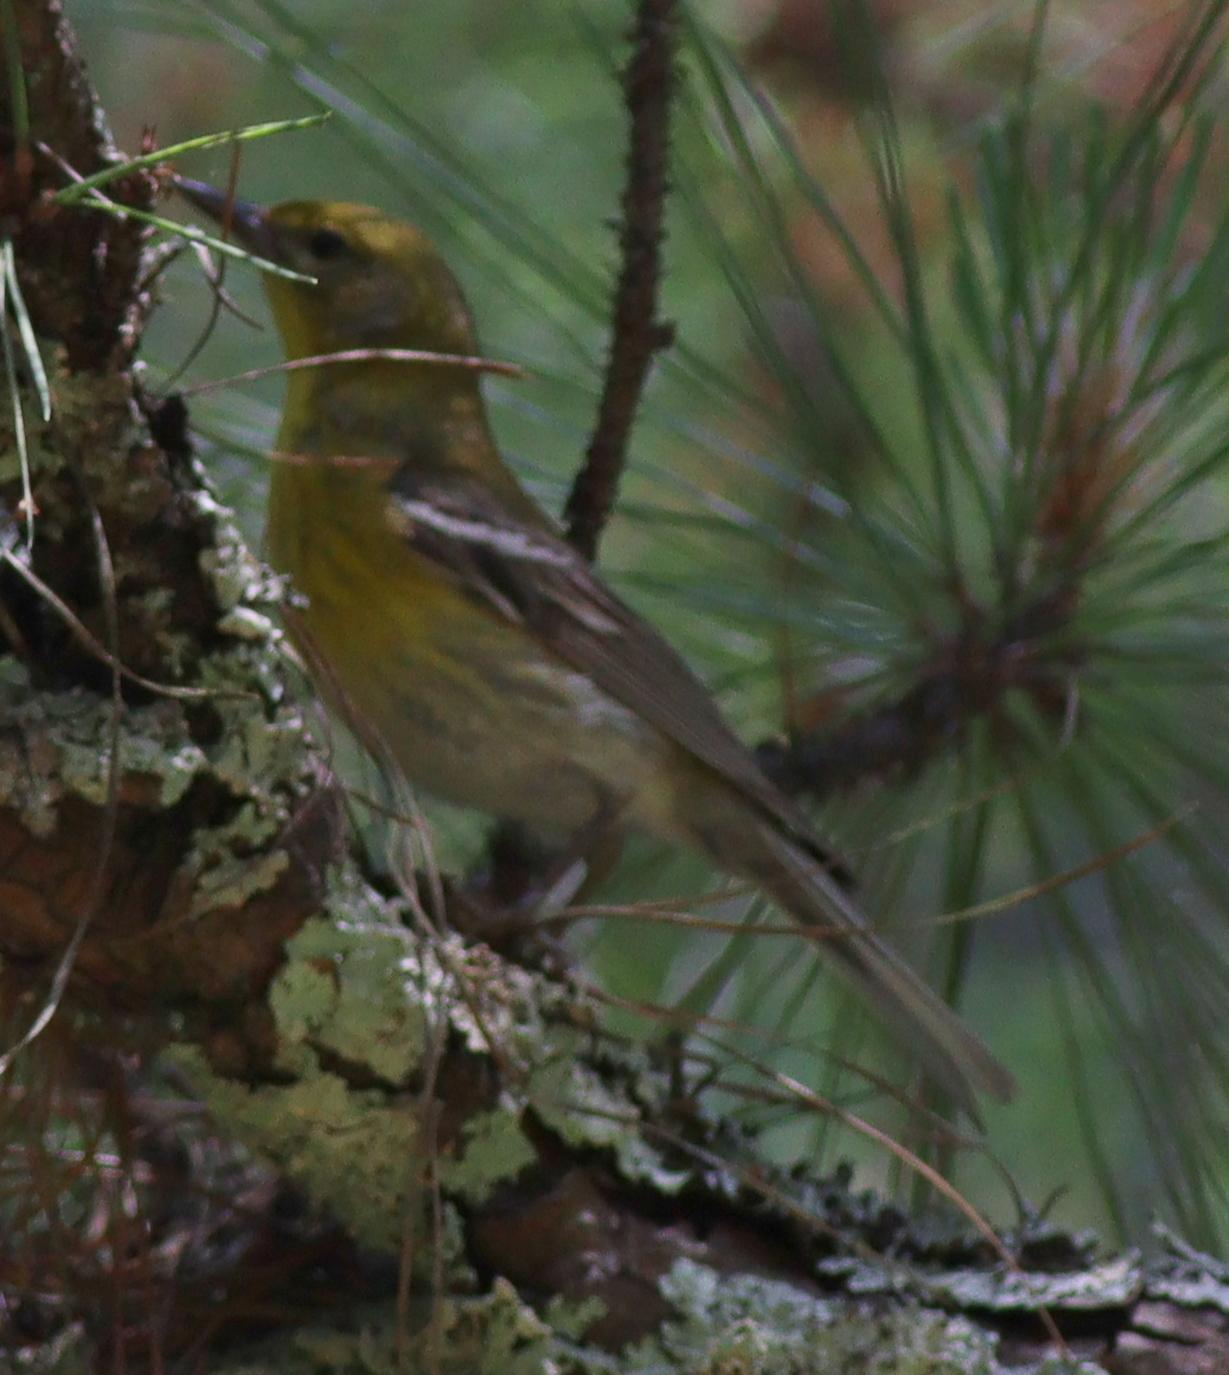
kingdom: Animalia
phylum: Chordata
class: Aves
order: Passeriformes
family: Parulidae
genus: Setophaga
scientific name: Setophaga pinus
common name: Pine warbler
